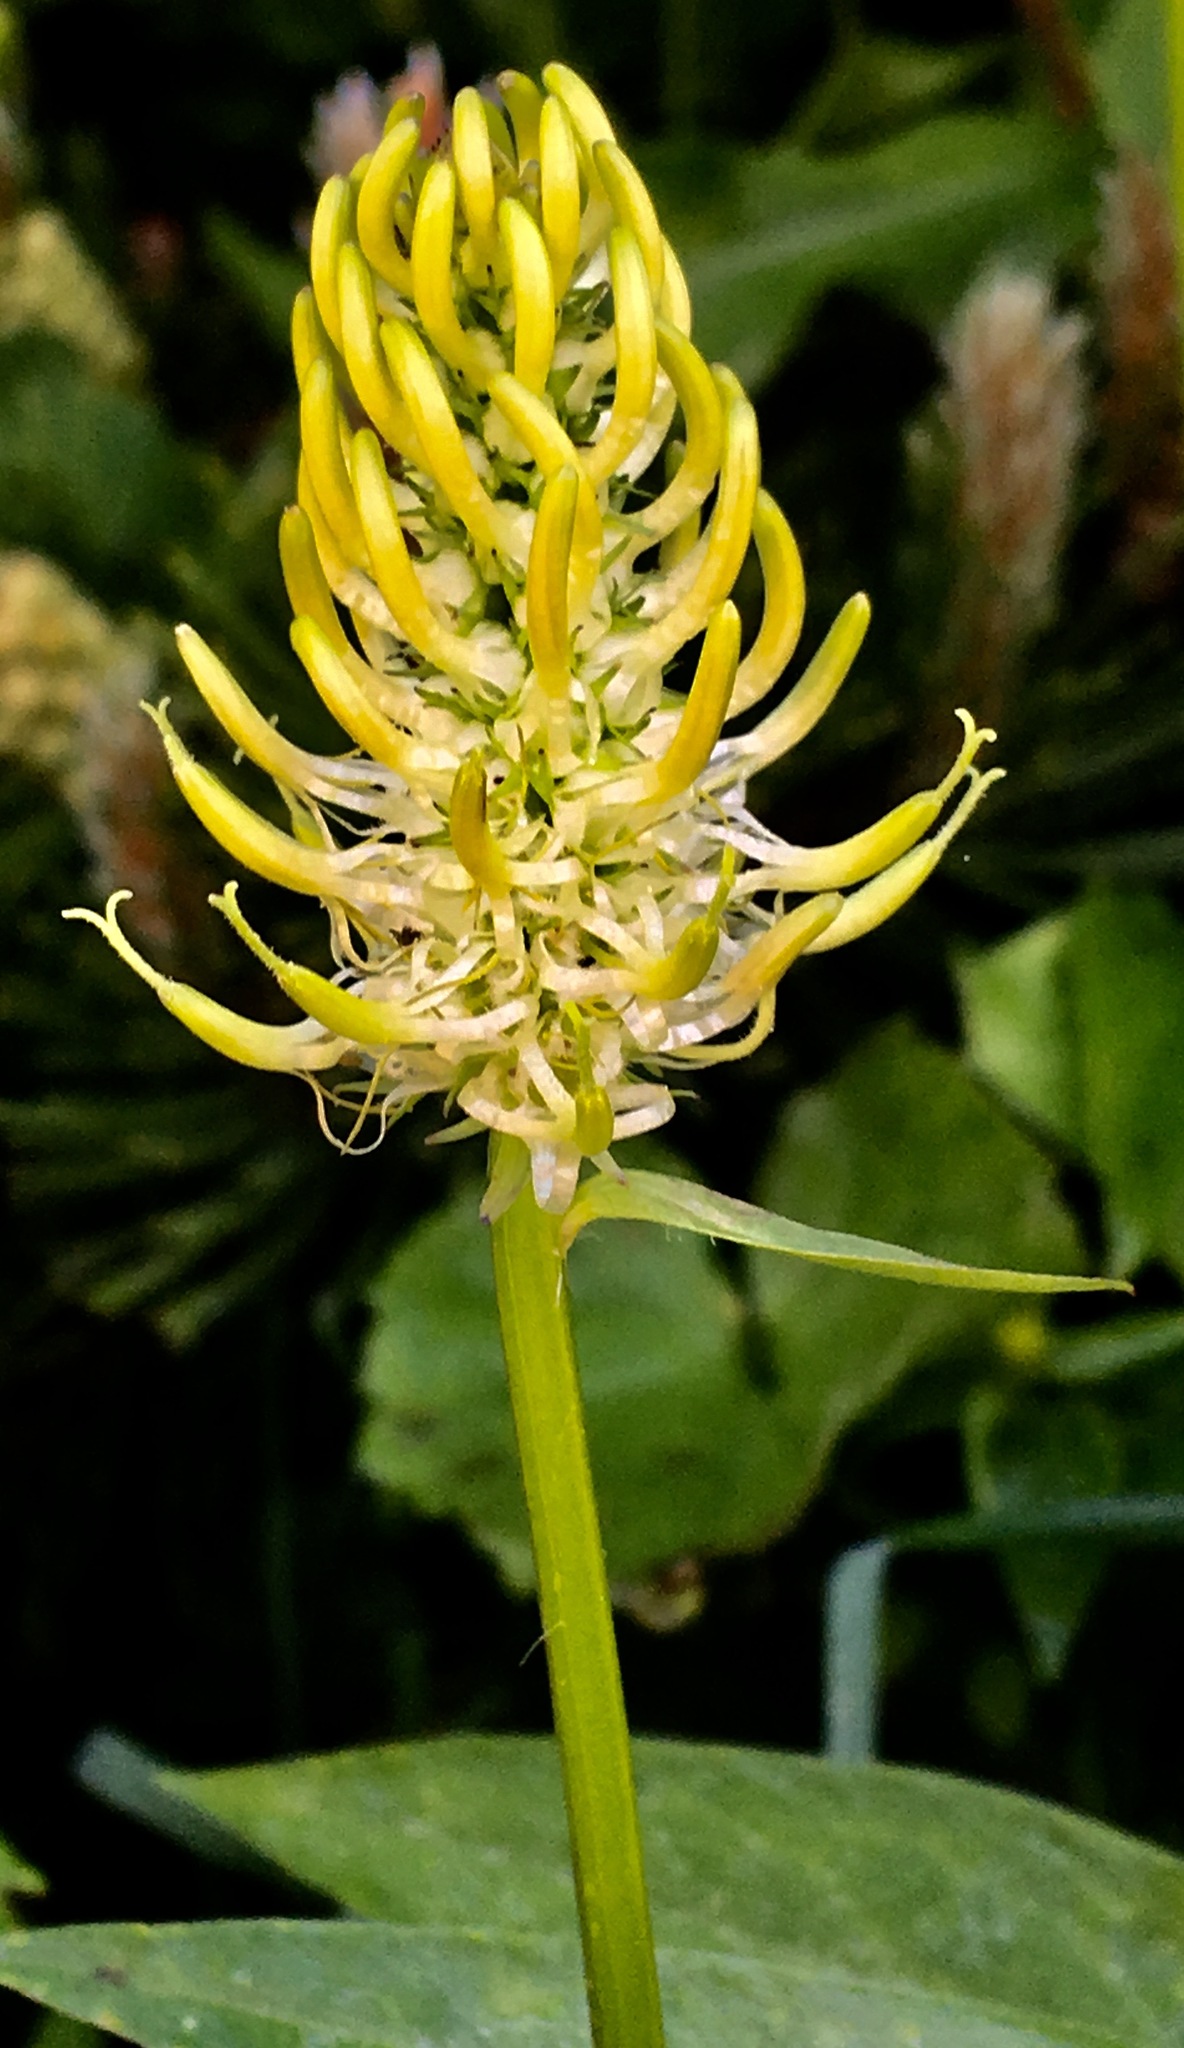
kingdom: Plantae
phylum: Tracheophyta
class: Magnoliopsida
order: Asterales
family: Campanulaceae
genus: Phyteuma
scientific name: Phyteuma spicatum
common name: Spiked rampion
